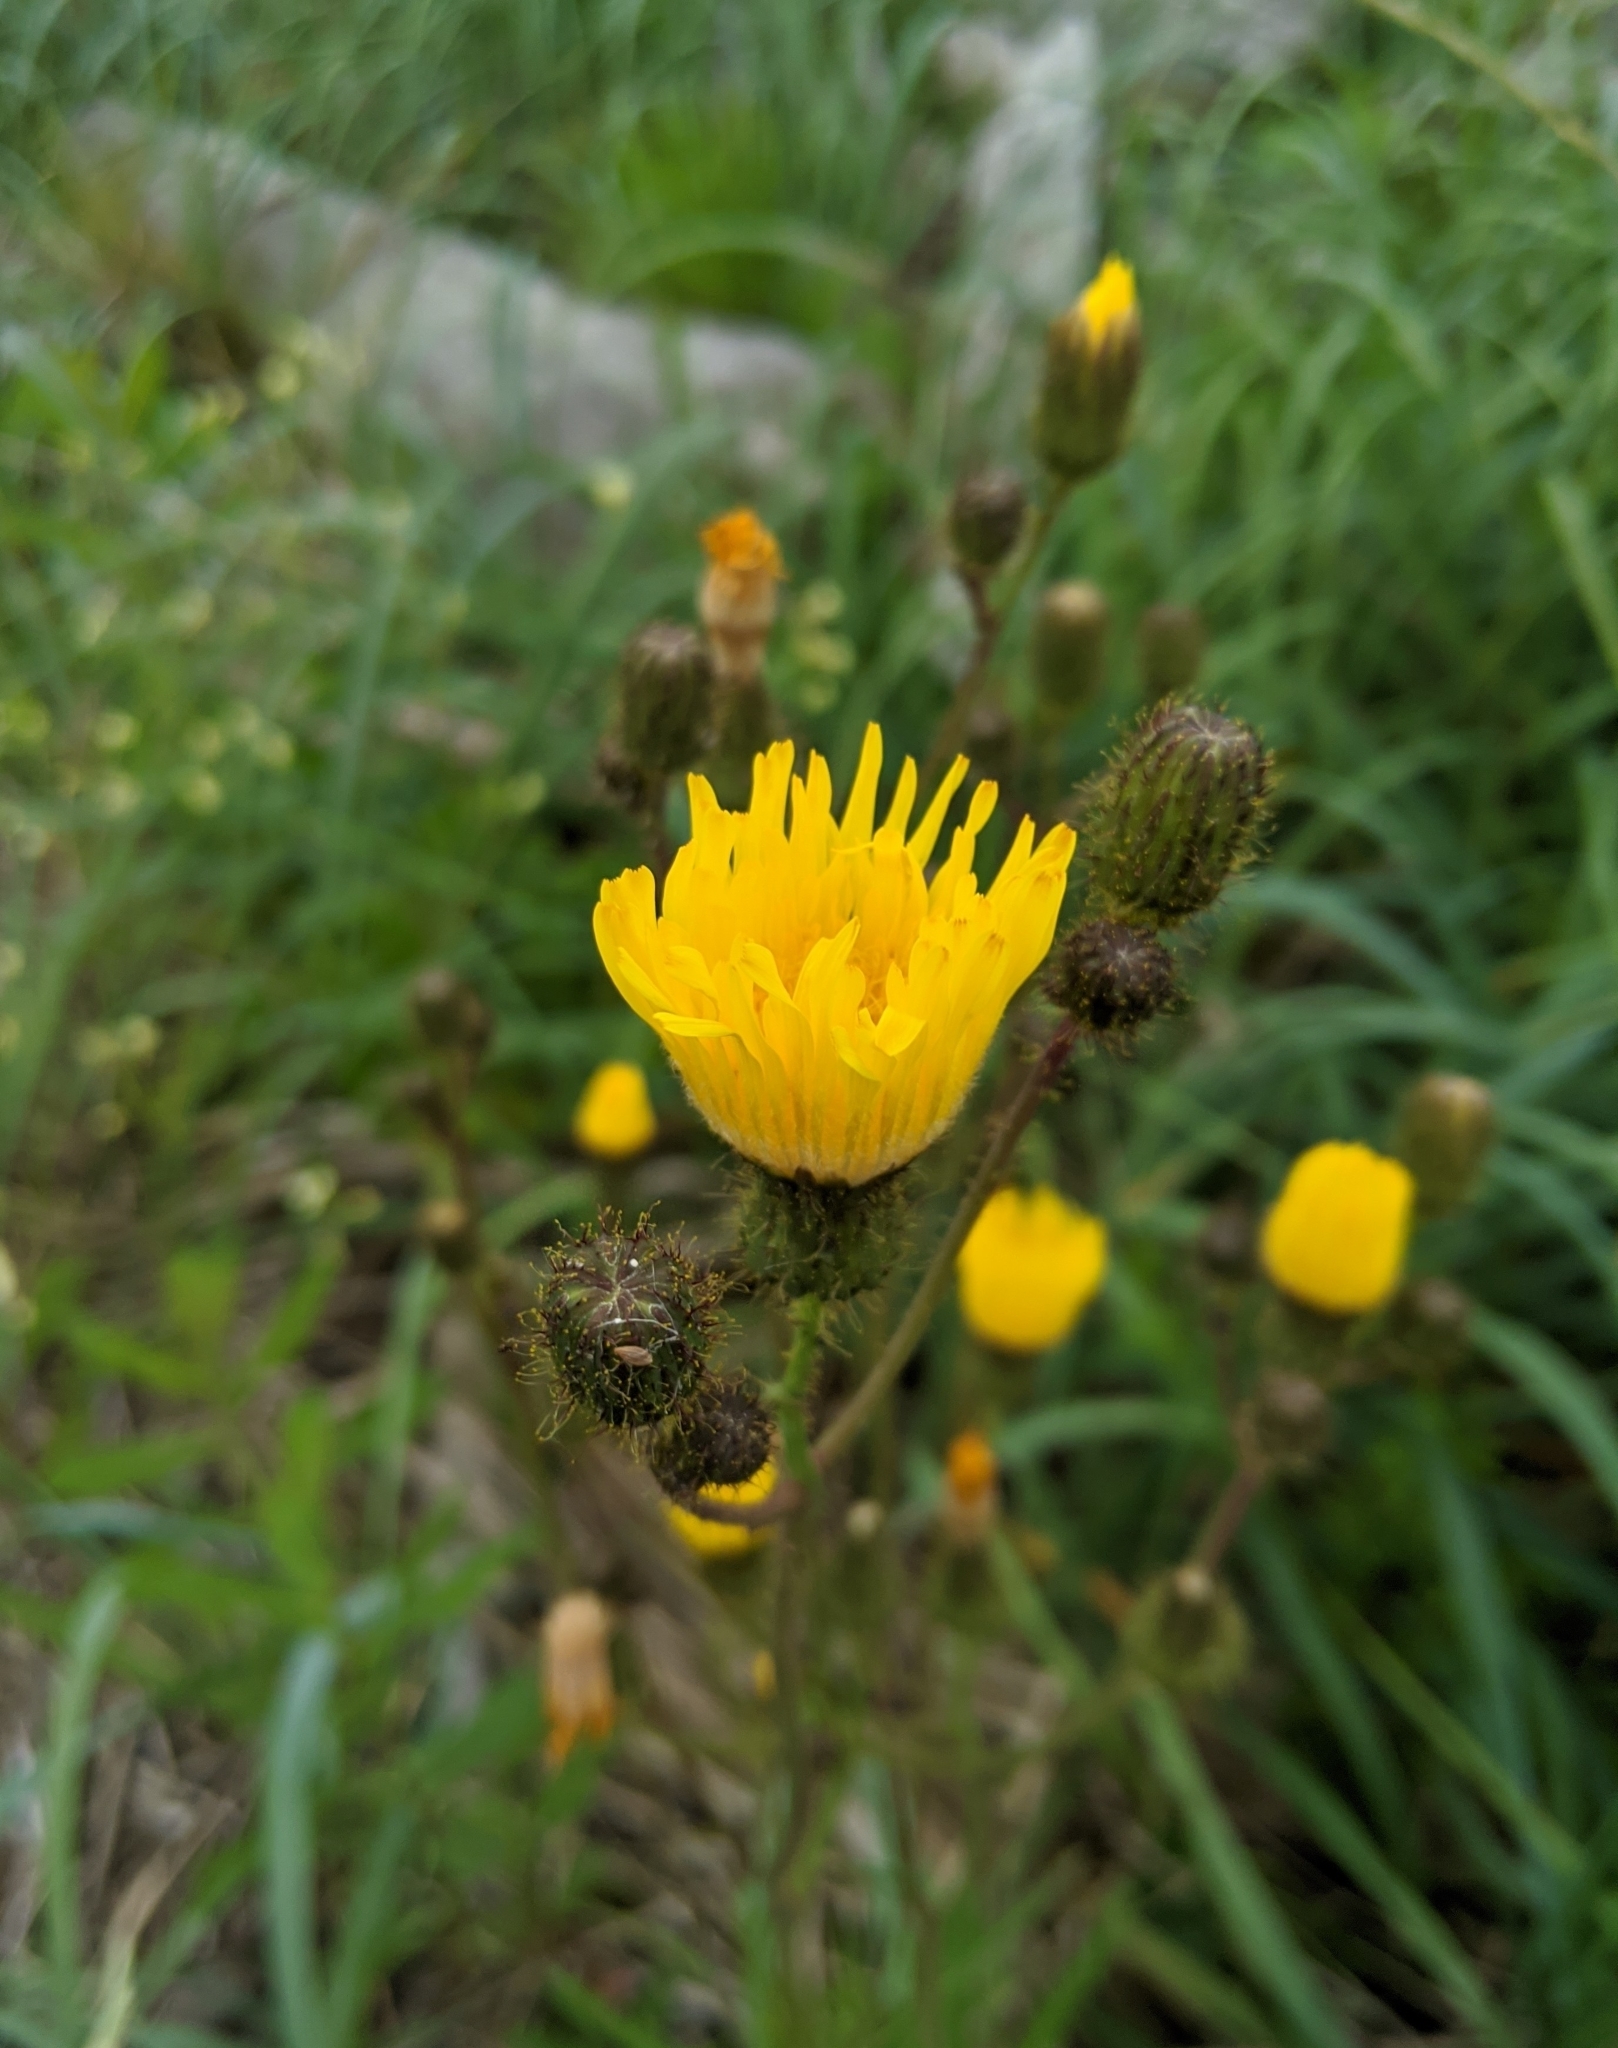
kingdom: Plantae
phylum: Tracheophyta
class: Magnoliopsida
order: Asterales
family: Asteraceae
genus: Sonchus
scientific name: Sonchus arvensis
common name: Perennial sow-thistle
